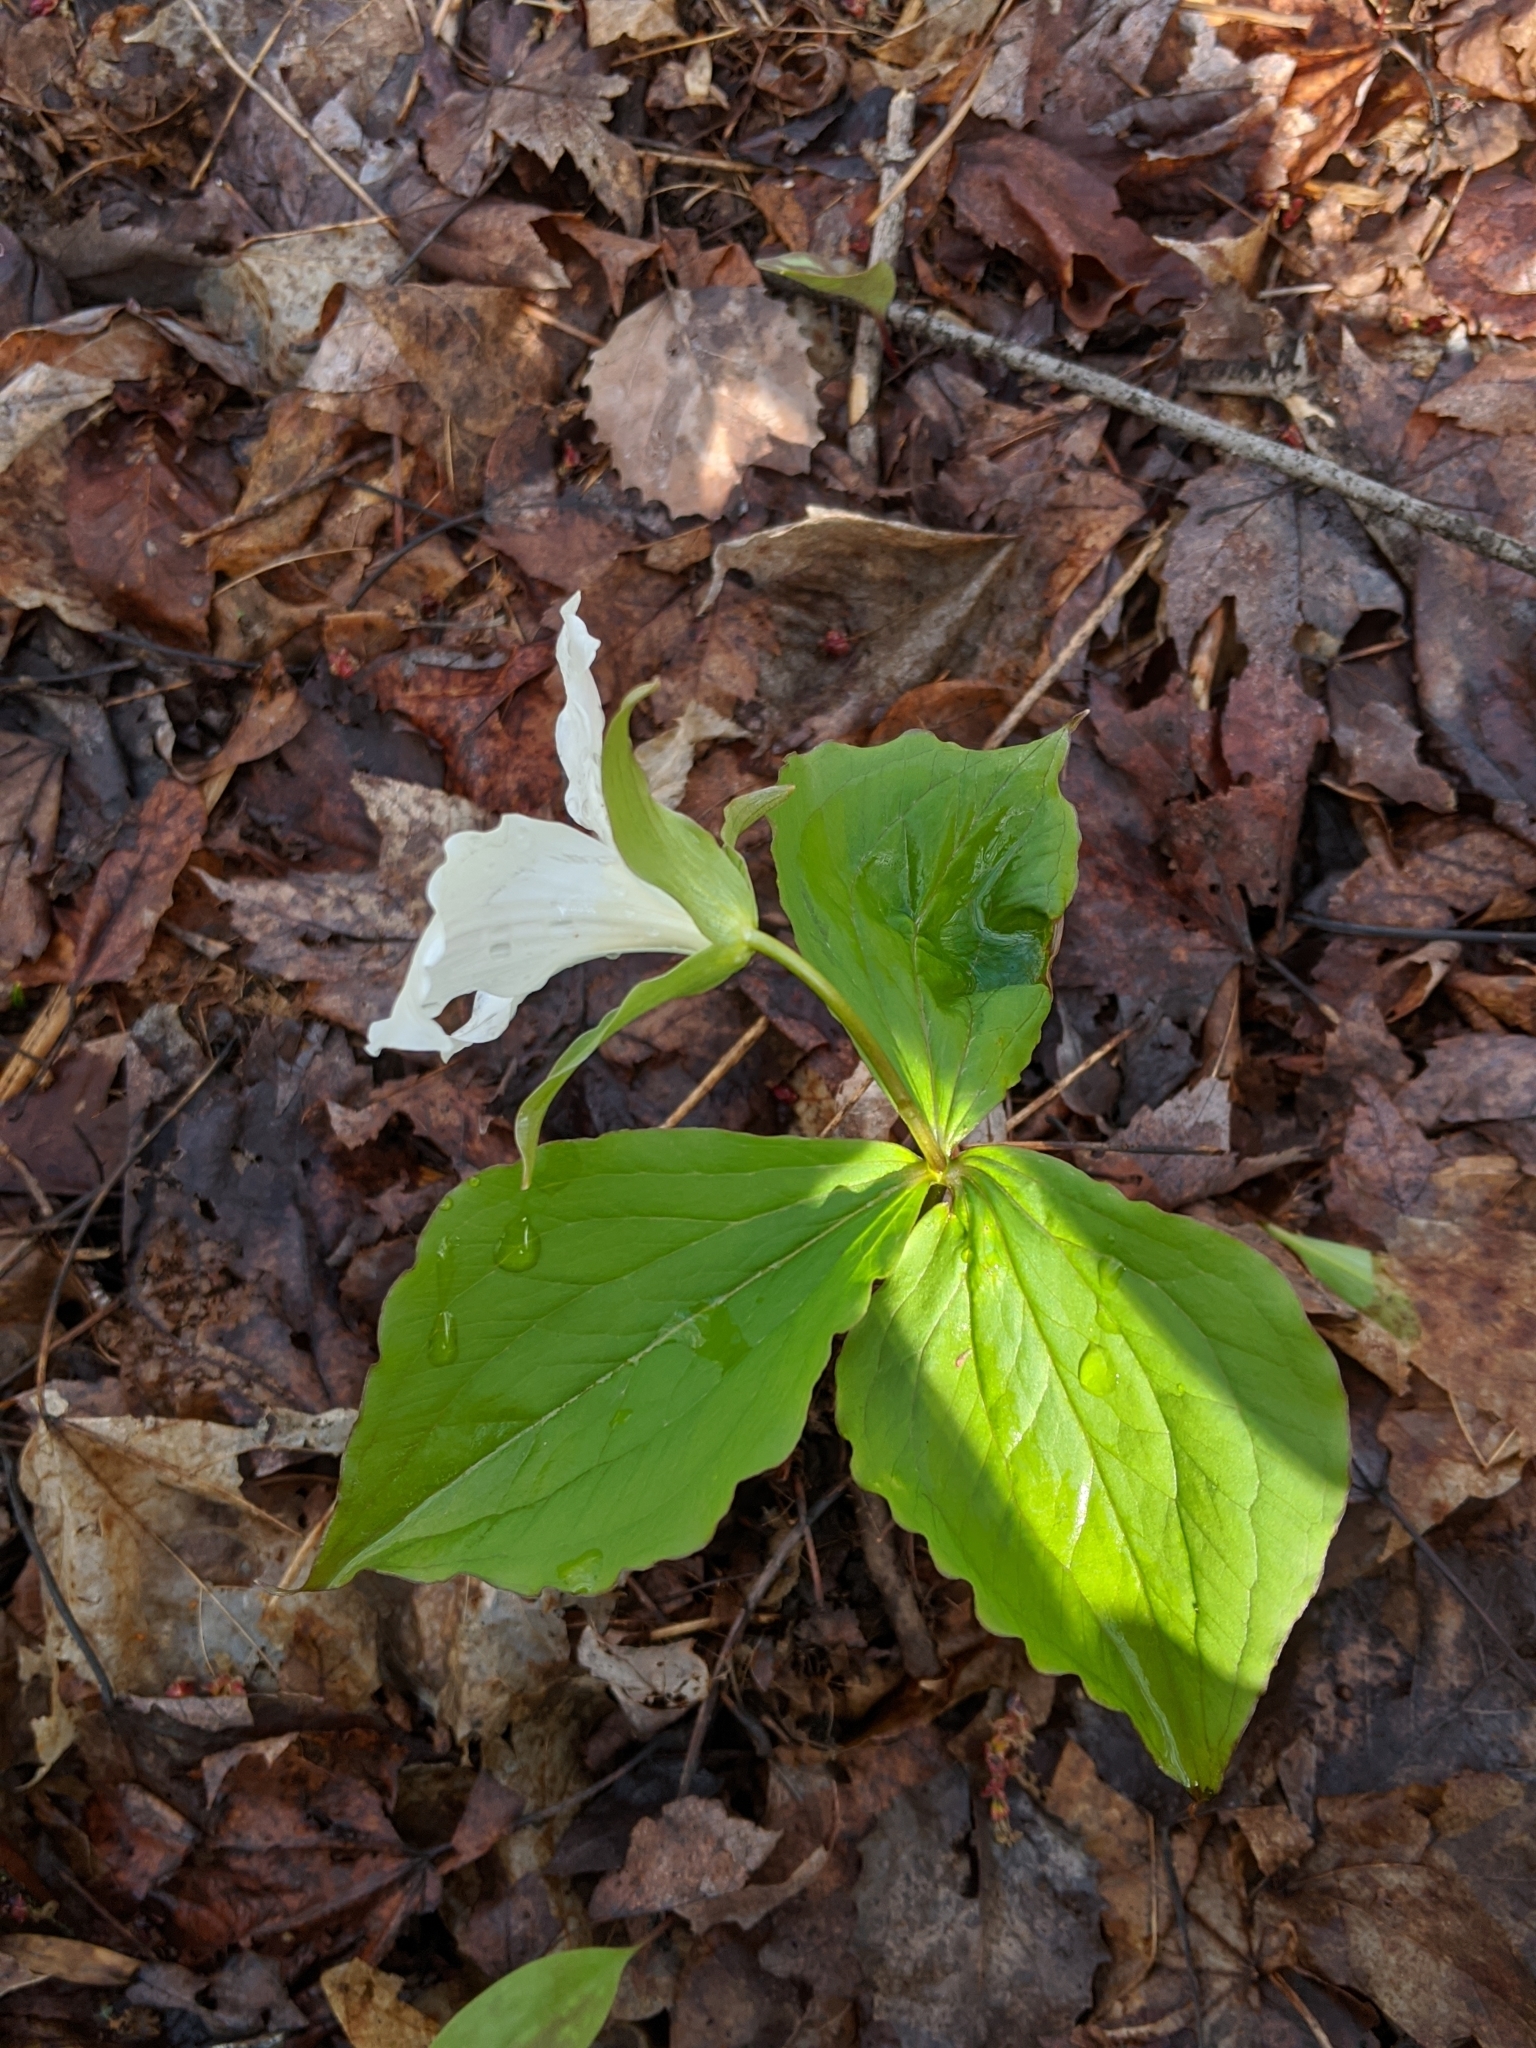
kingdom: Plantae
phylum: Tracheophyta
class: Liliopsida
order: Liliales
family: Melanthiaceae
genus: Trillium
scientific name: Trillium grandiflorum
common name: Great white trillium
